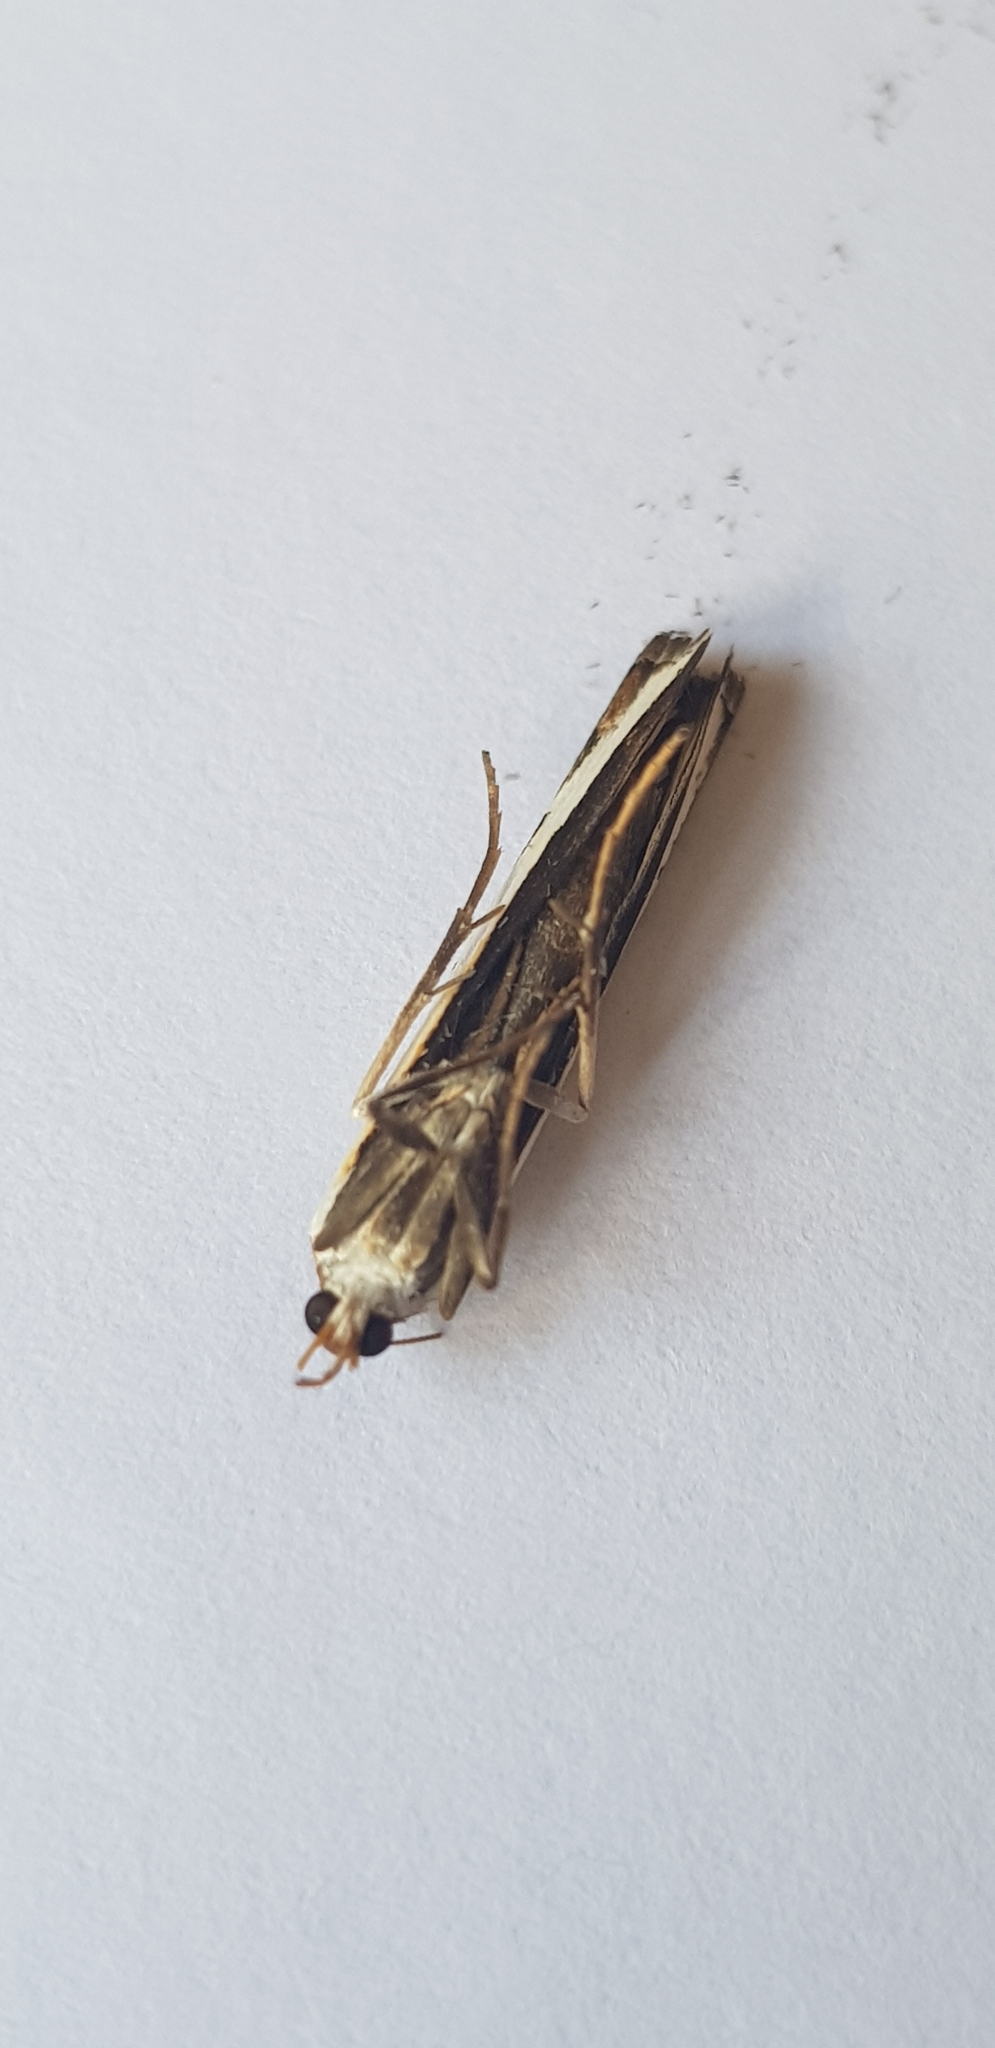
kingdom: Animalia
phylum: Arthropoda
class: Insecta
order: Lepidoptera
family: Crambidae
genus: Orocrambus
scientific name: Orocrambus flexuosellus
